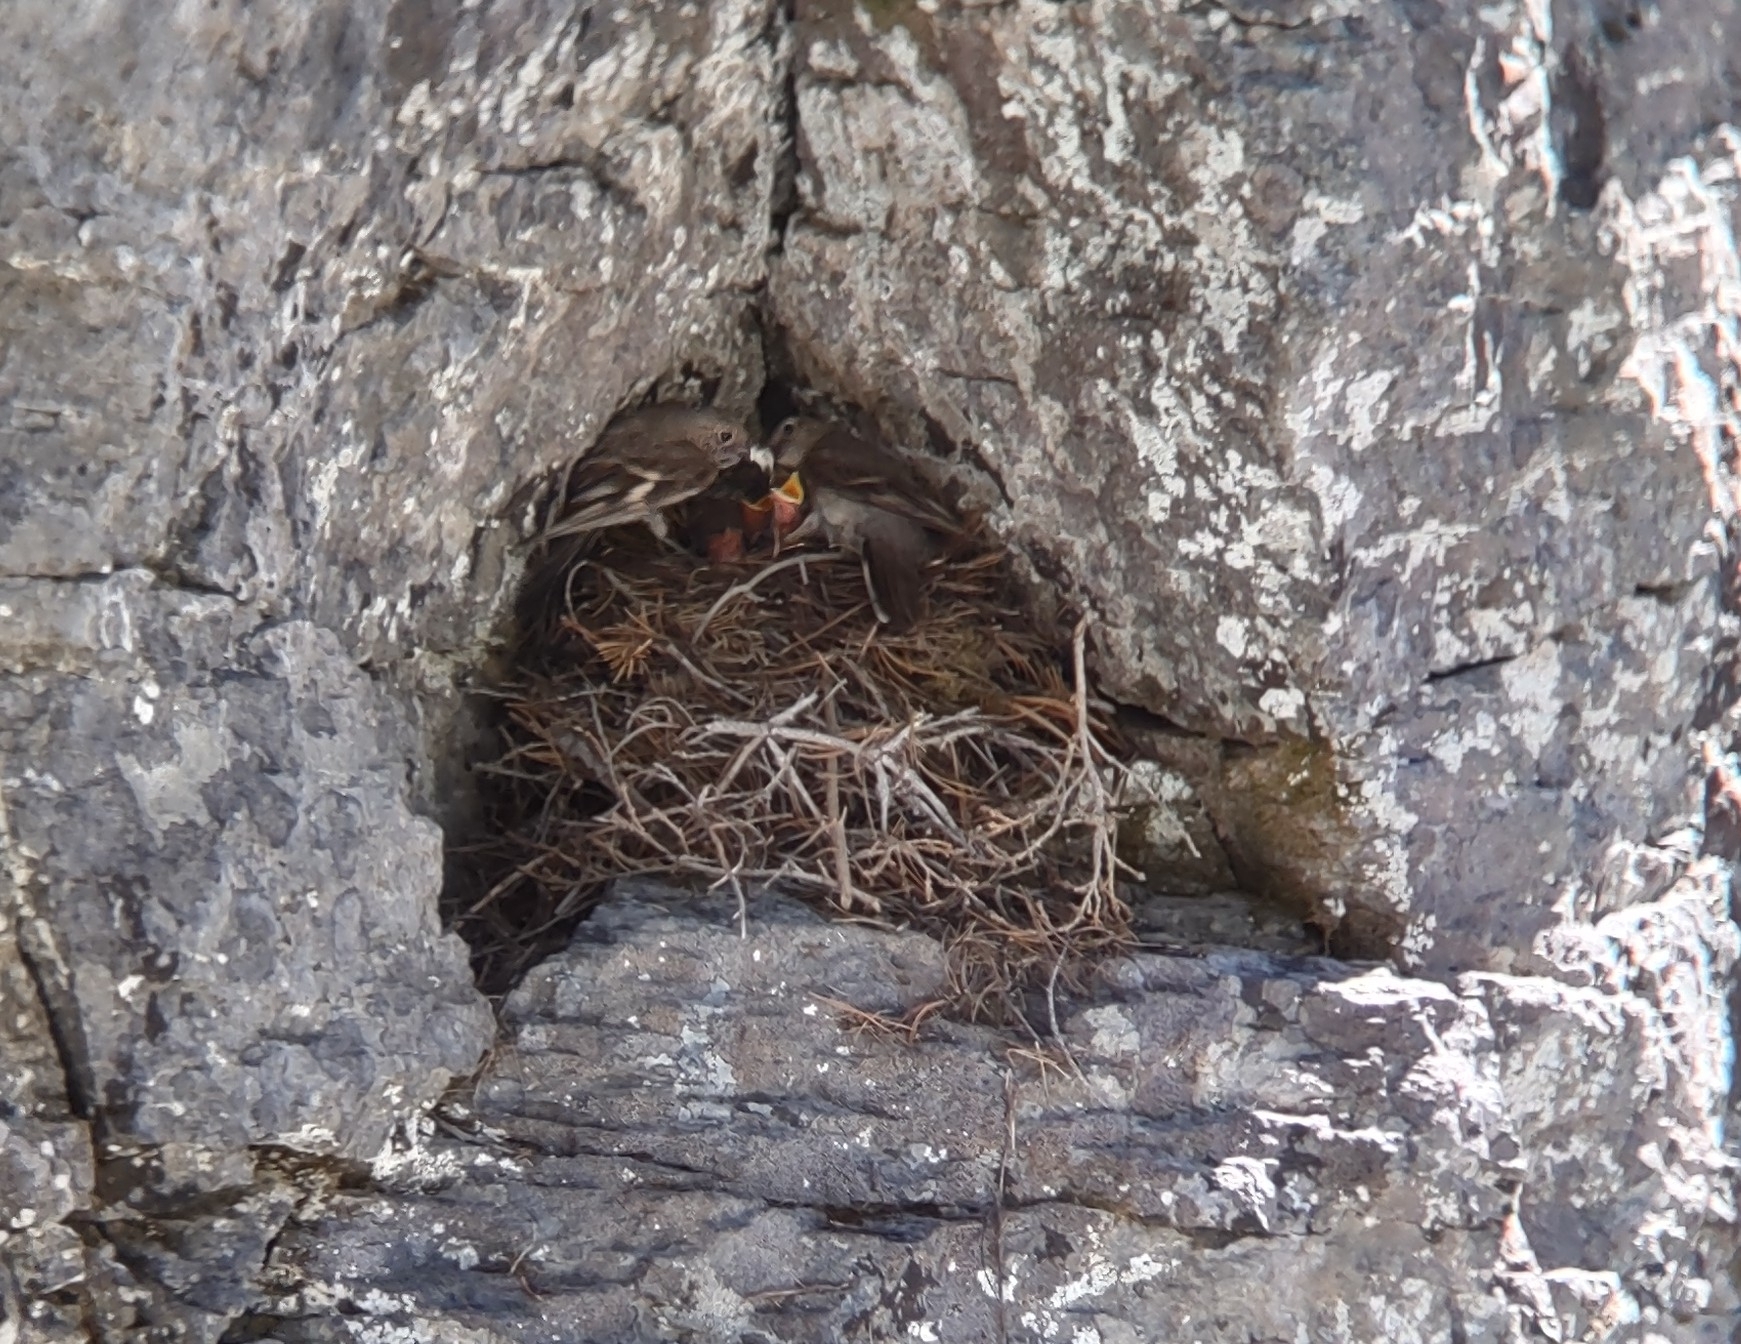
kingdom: Animalia
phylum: Chordata
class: Aves
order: Passeriformes
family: Turdidae
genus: Myadestes
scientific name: Myadestes townsendi
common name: Townsend's solitaire
